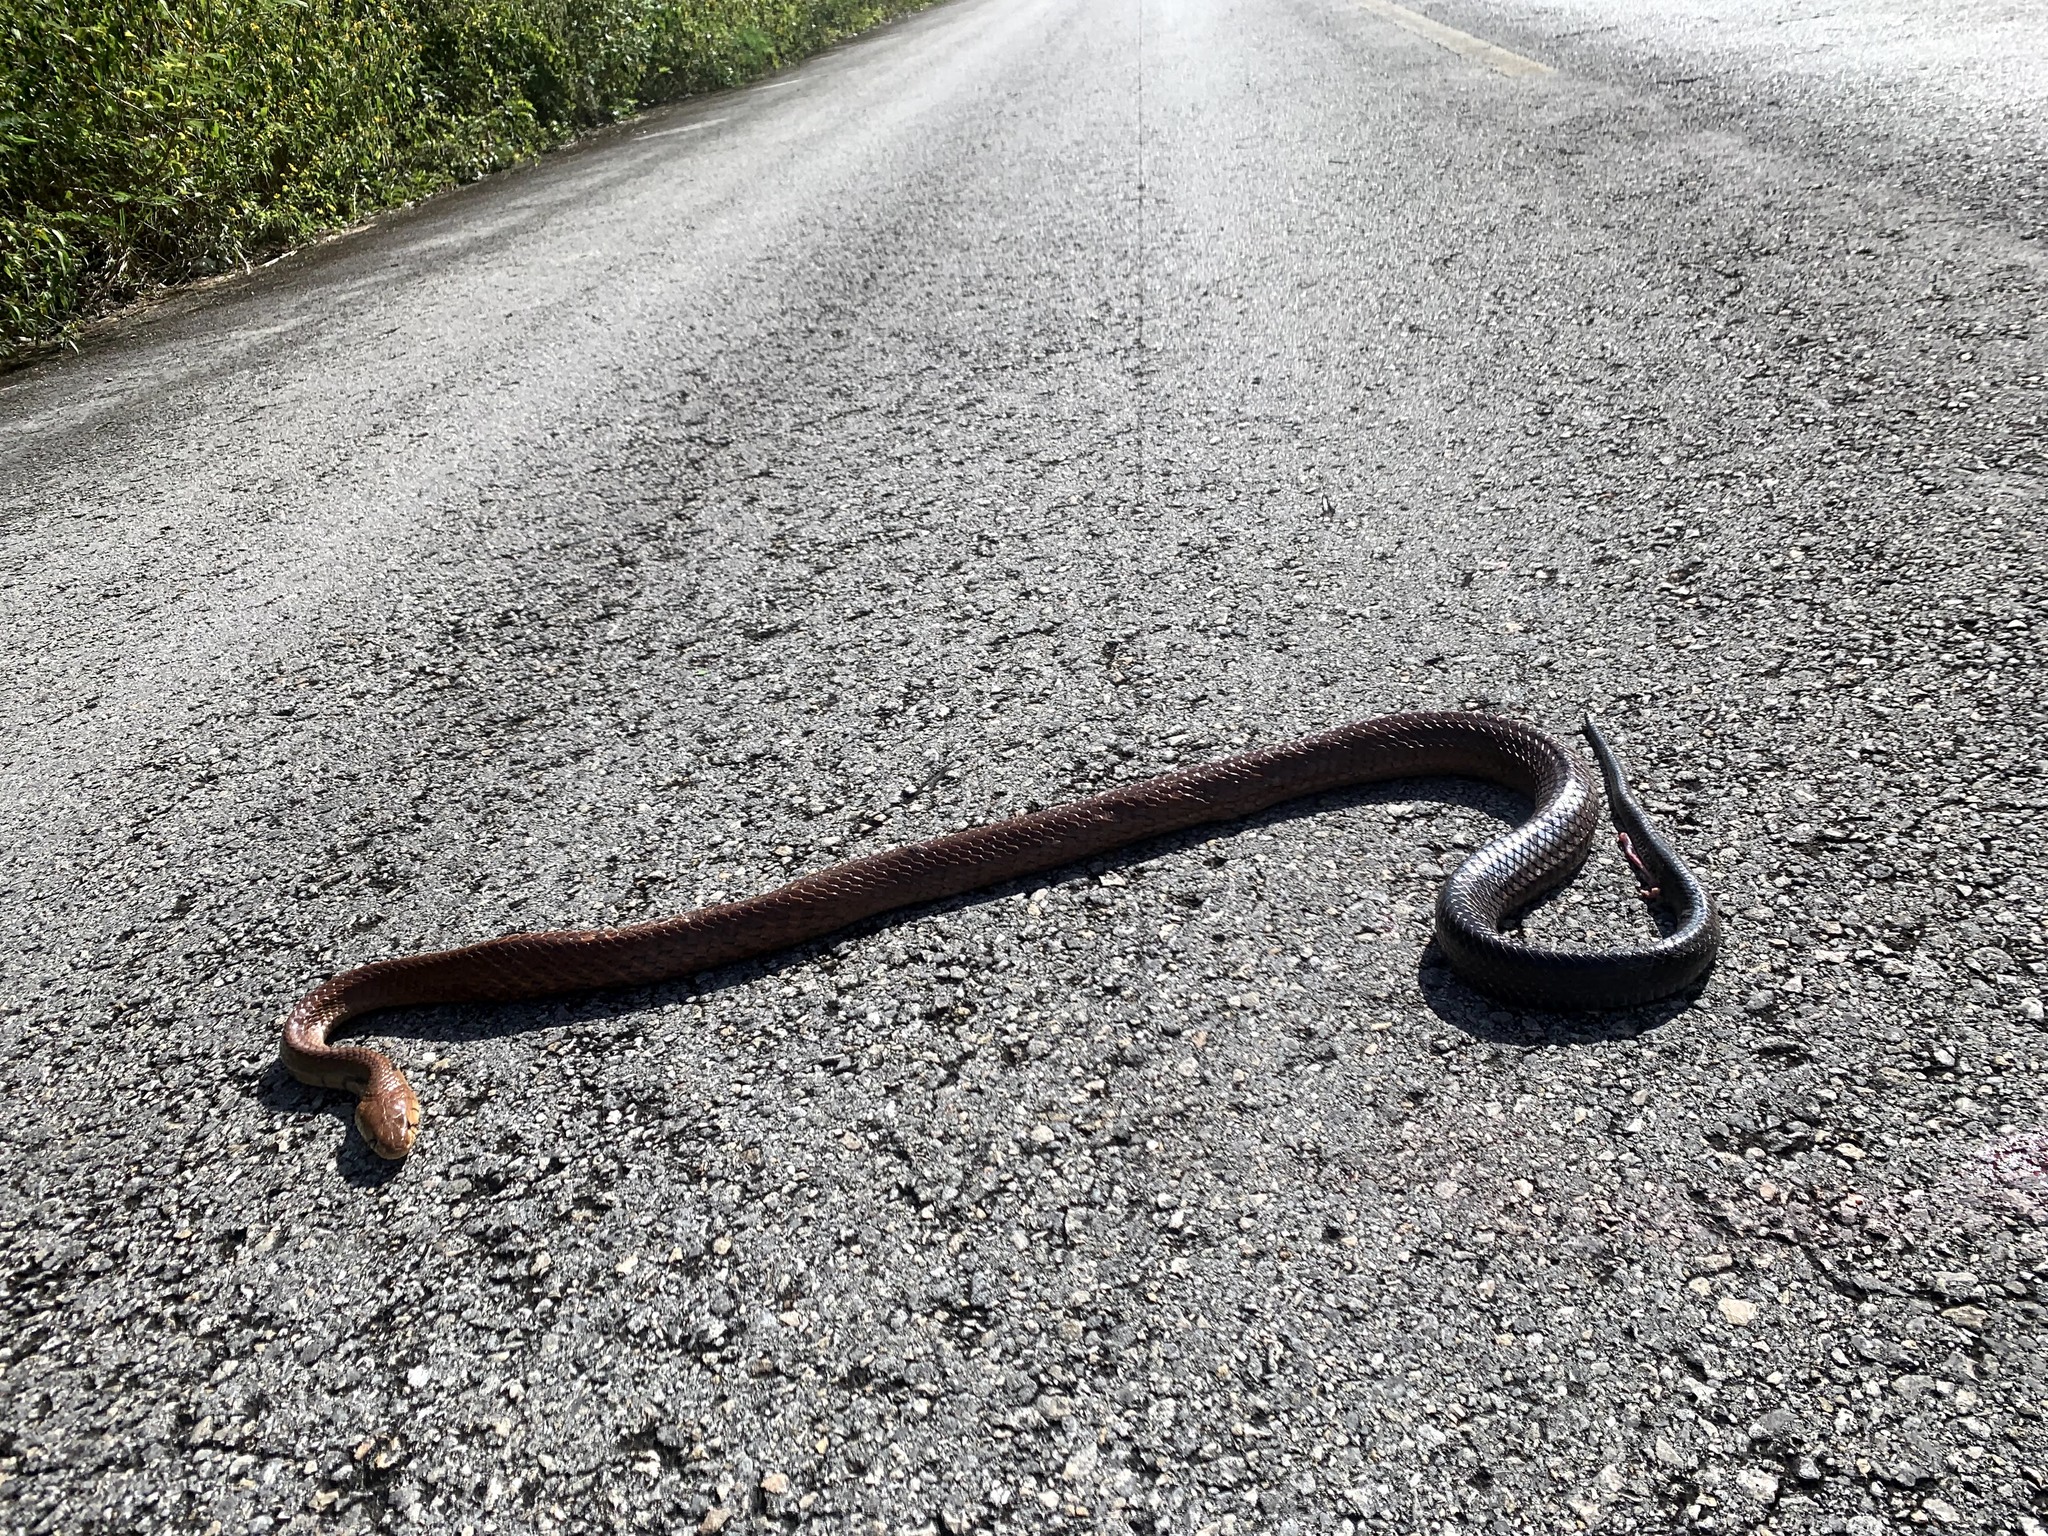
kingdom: Animalia
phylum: Chordata
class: Squamata
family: Colubridae
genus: Drymarchon
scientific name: Drymarchon melanurus
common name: Central american indigo snake
